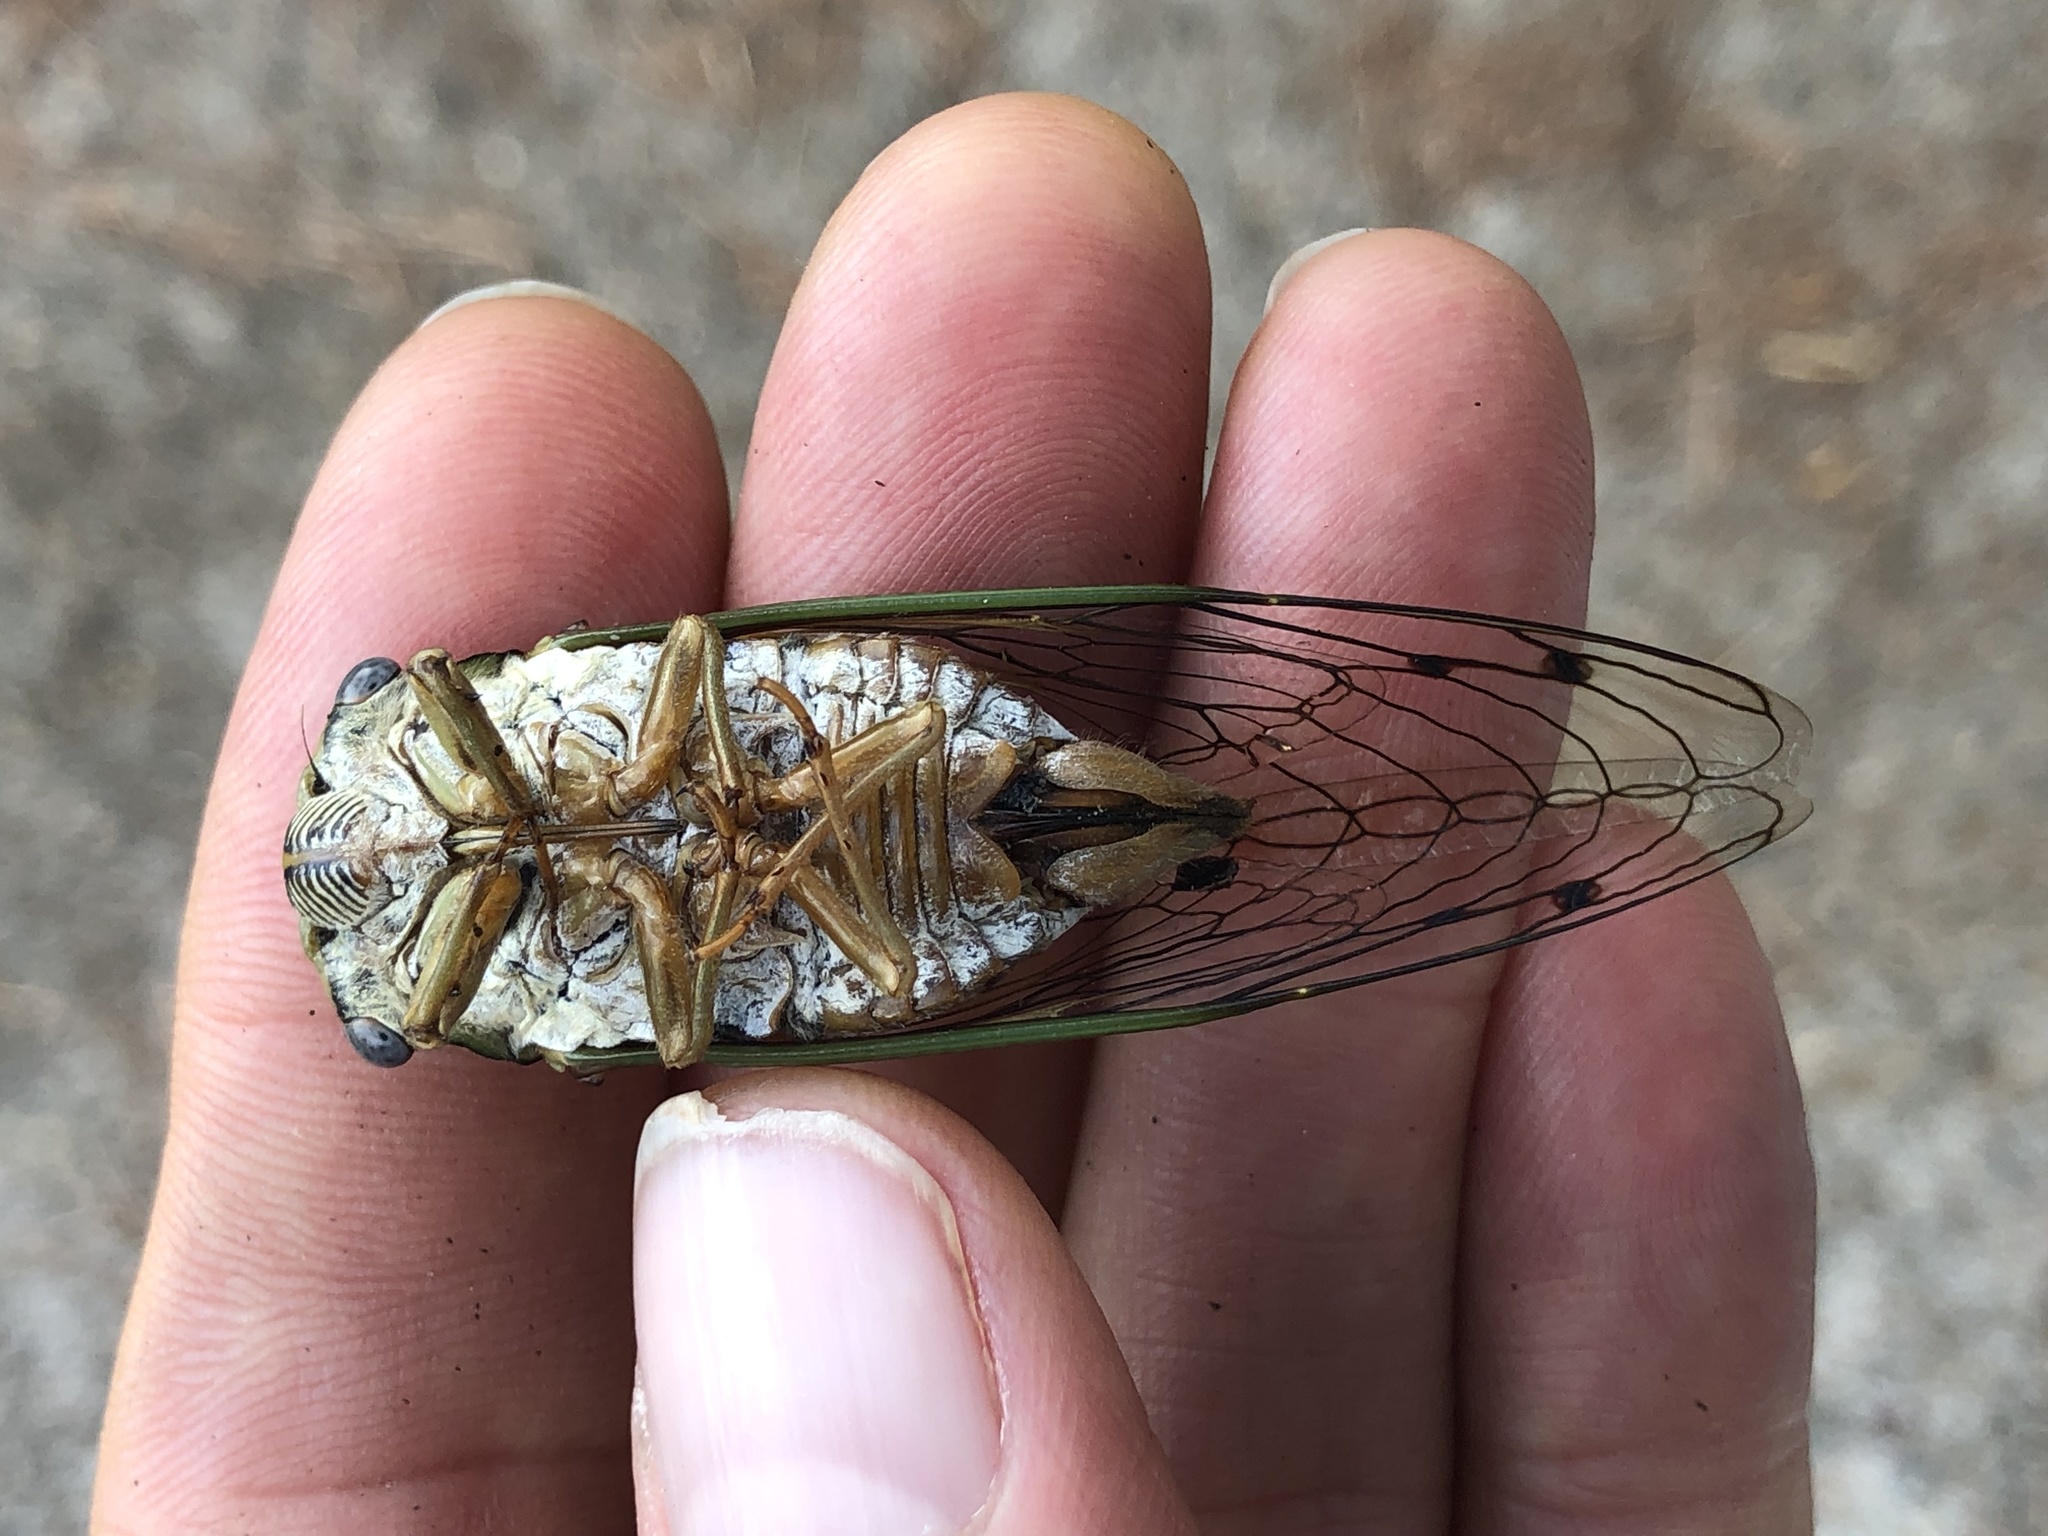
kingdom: Animalia
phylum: Arthropoda
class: Insecta
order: Hemiptera
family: Cicadidae
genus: Megatibicen
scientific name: Megatibicen resh
